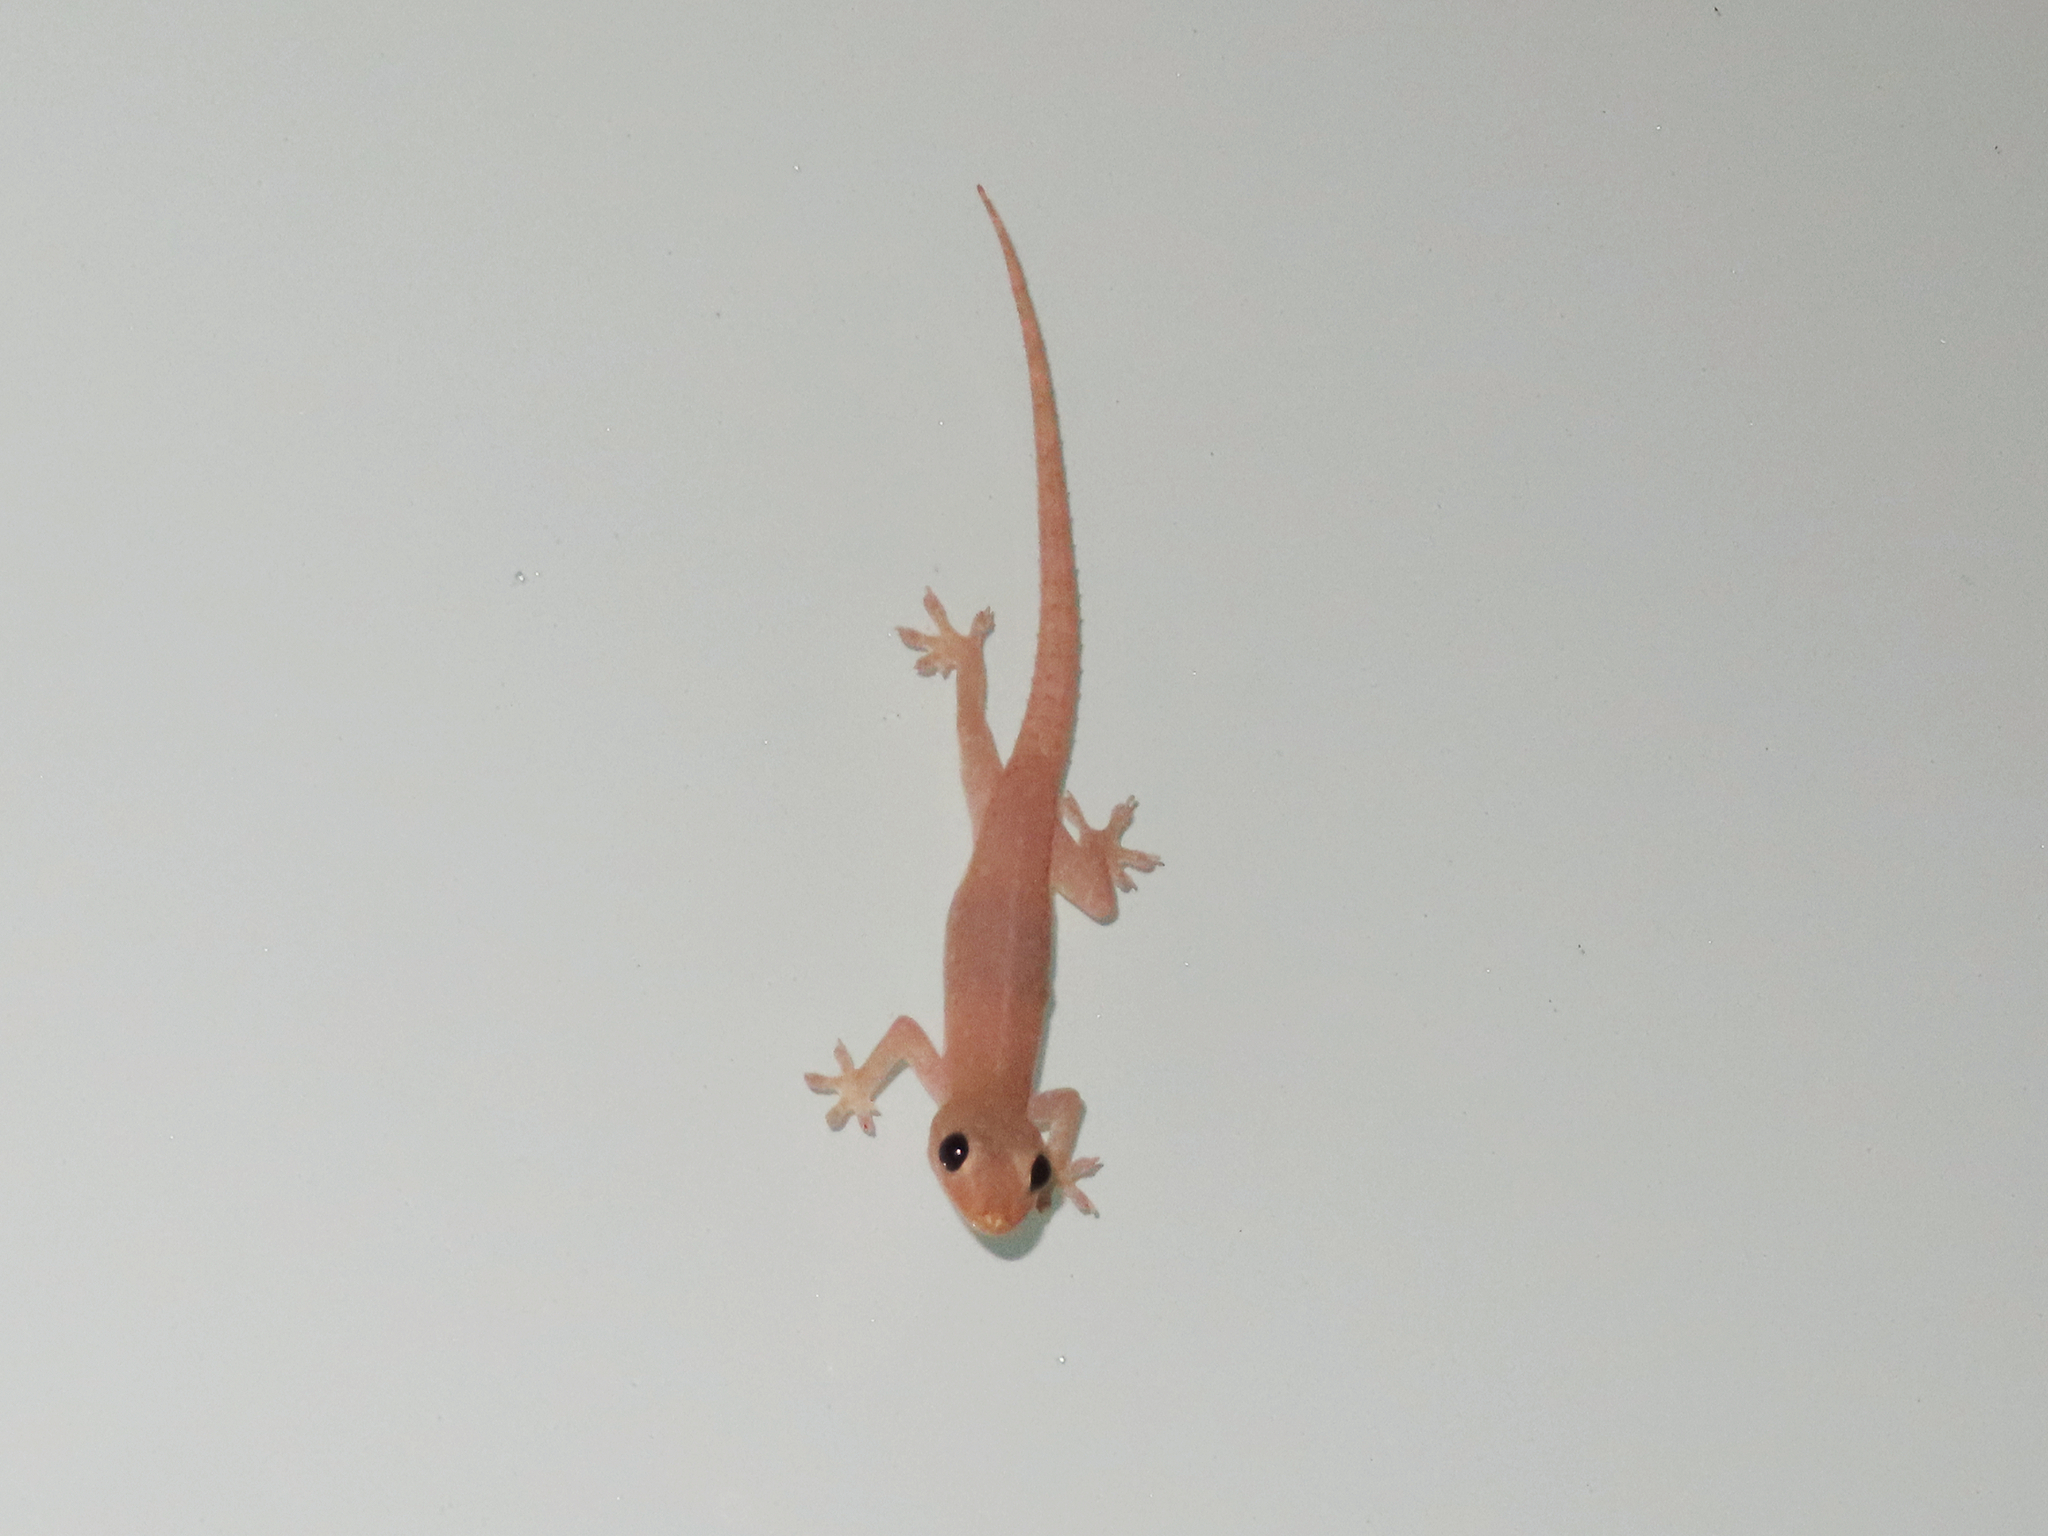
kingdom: Animalia
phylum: Chordata
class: Squamata
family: Gekkonidae
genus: Hemidactylus
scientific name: Hemidactylus frenatus
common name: Common house gecko
